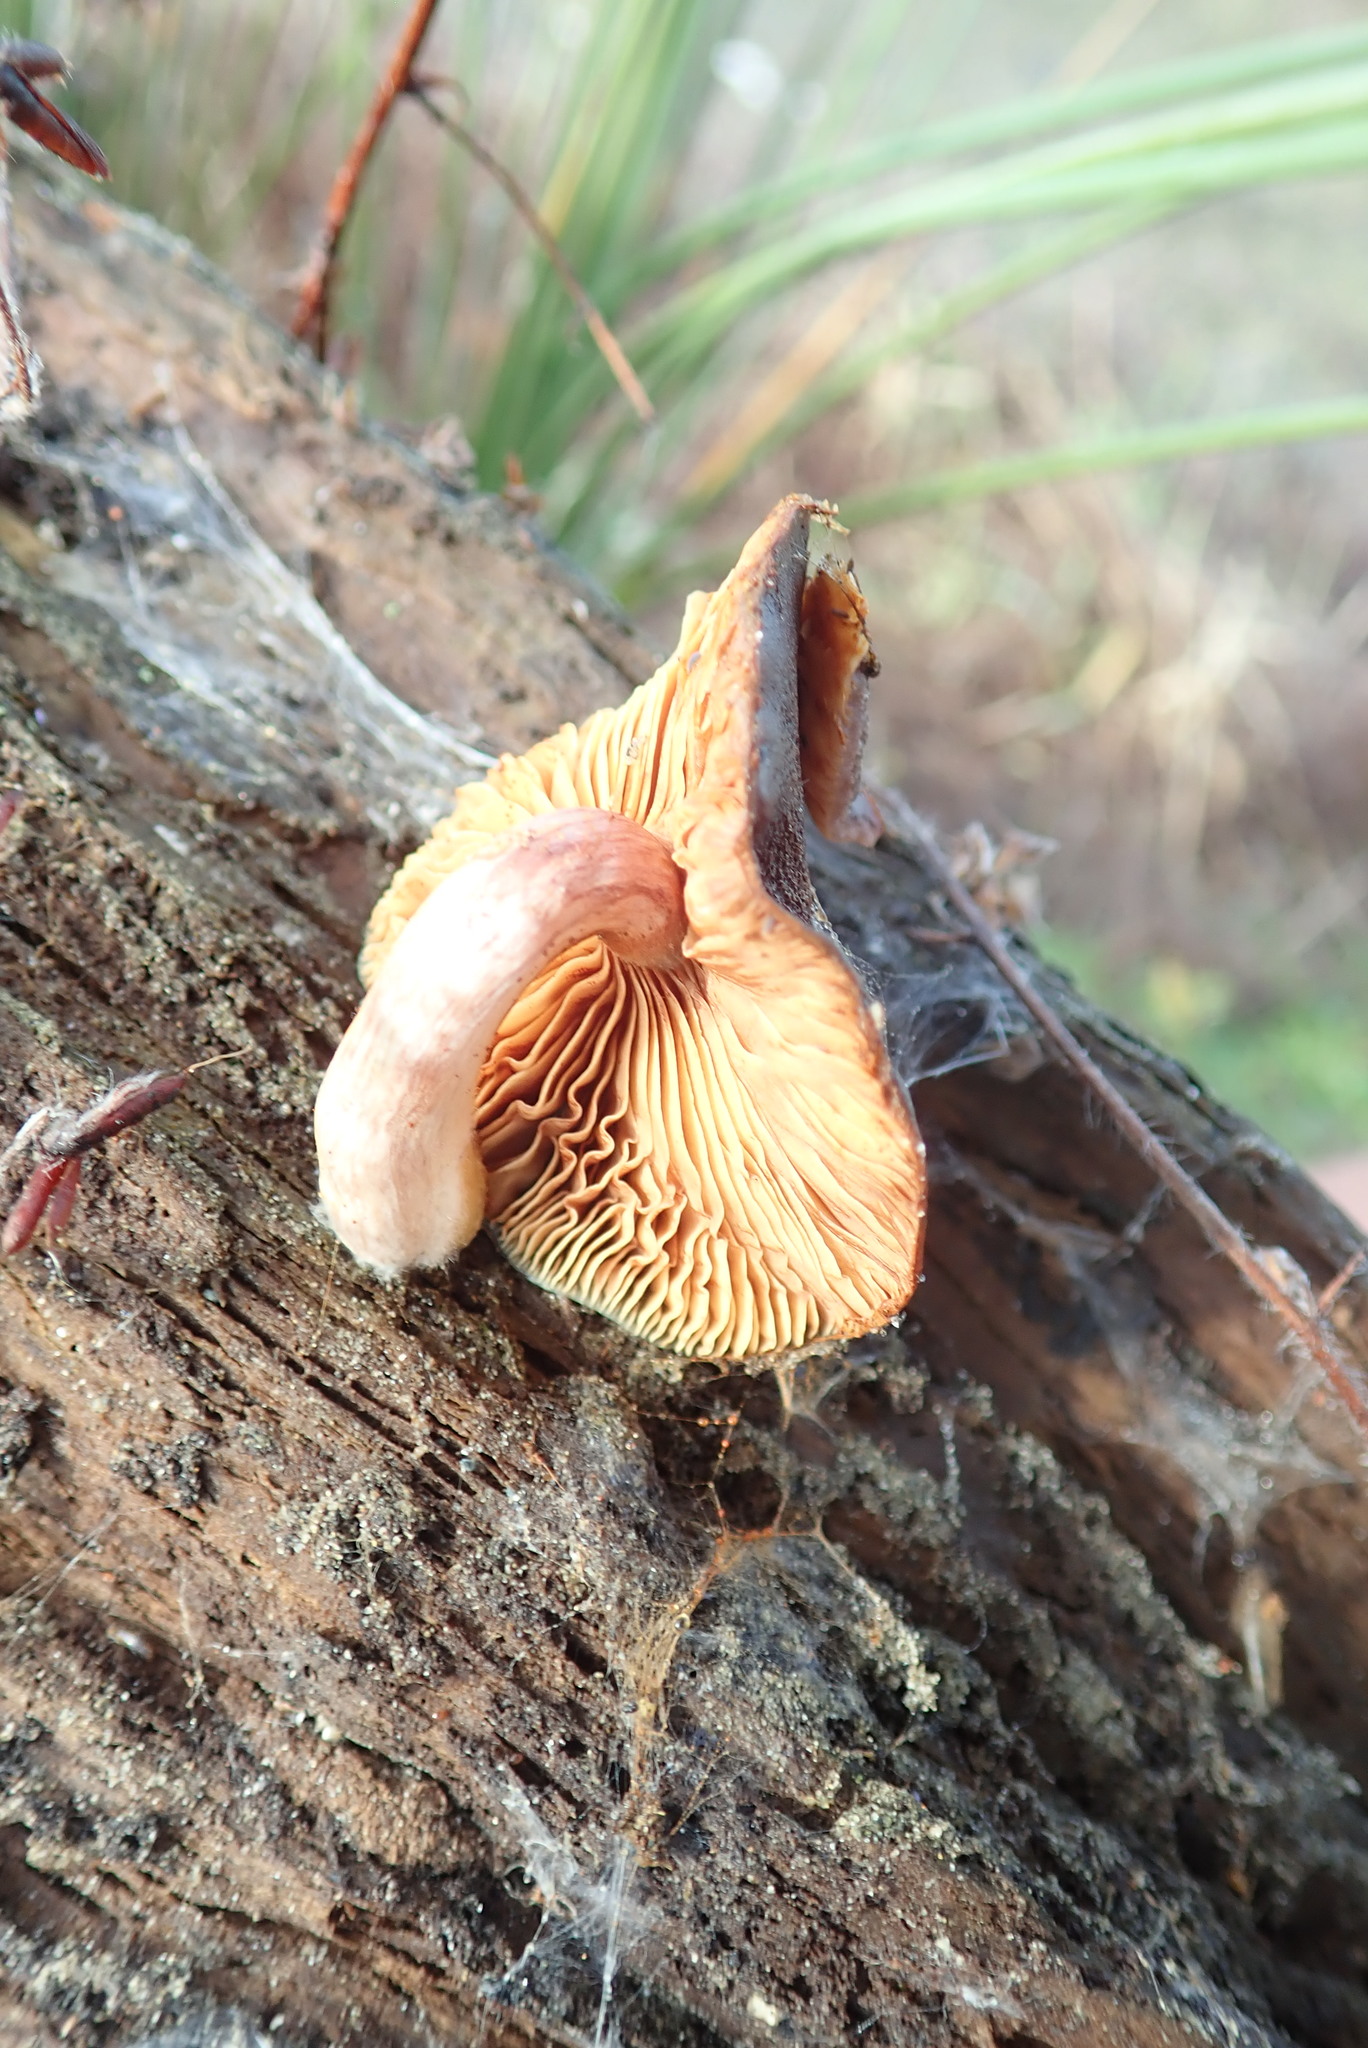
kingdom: Fungi
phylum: Basidiomycota
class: Agaricomycetes
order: Agaricales
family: Hymenogastraceae
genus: Gymnopilus
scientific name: Gymnopilus purpuratus
